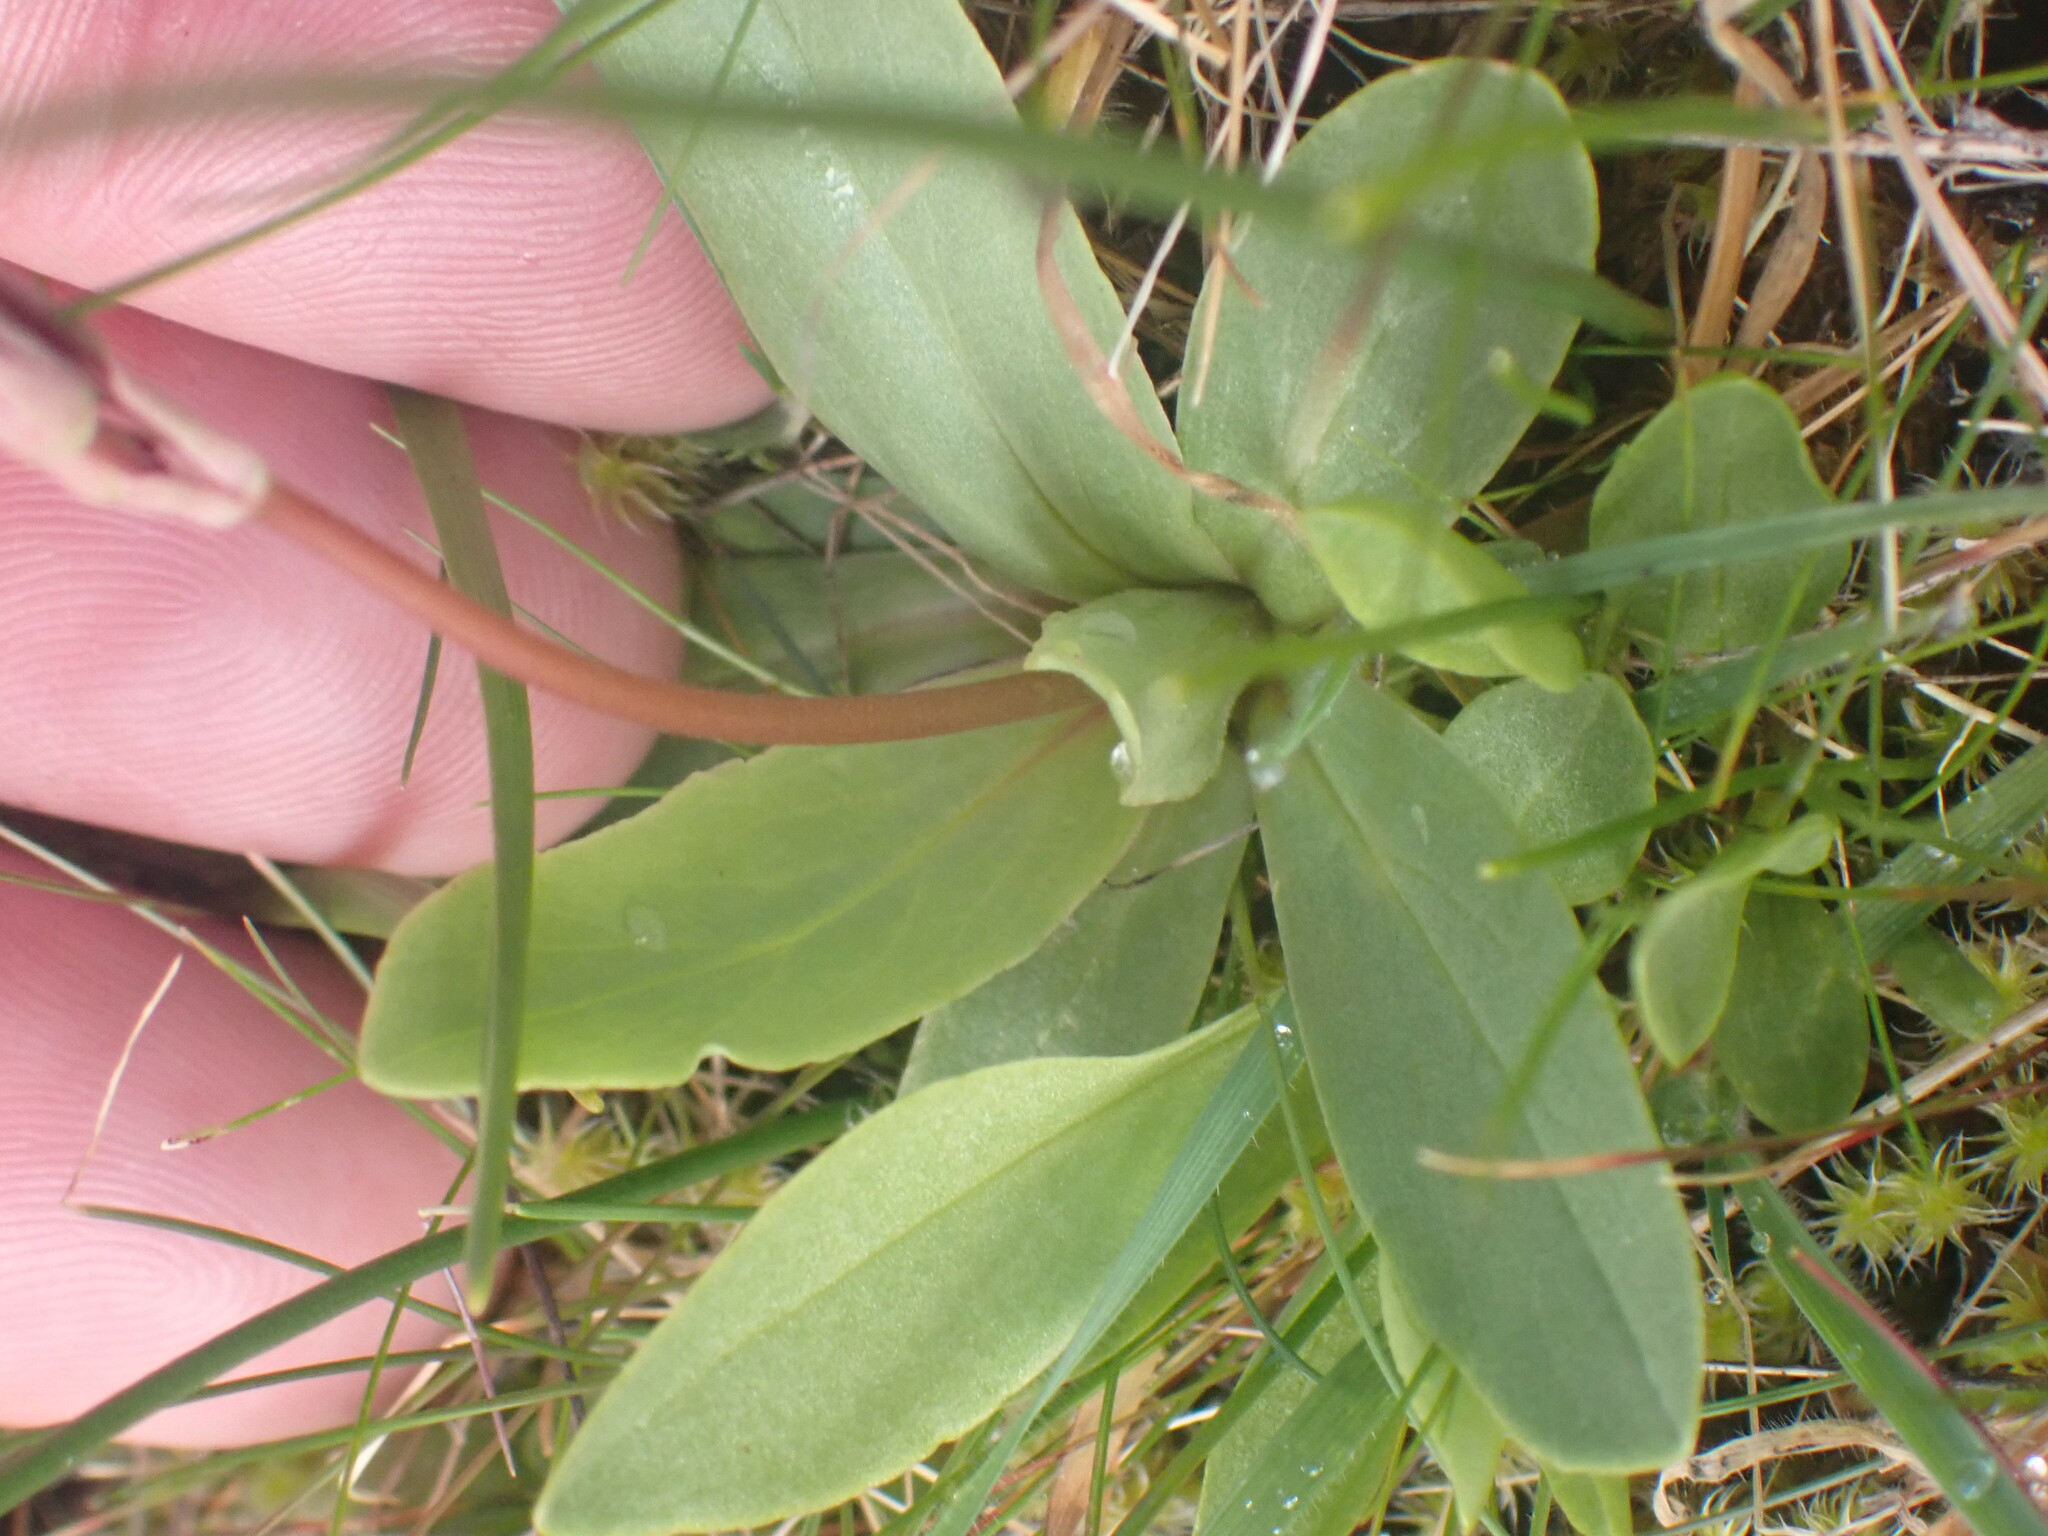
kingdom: Plantae
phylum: Tracheophyta
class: Magnoliopsida
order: Ericales
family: Primulaceae
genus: Dodecatheon
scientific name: Dodecatheon pulchellum
